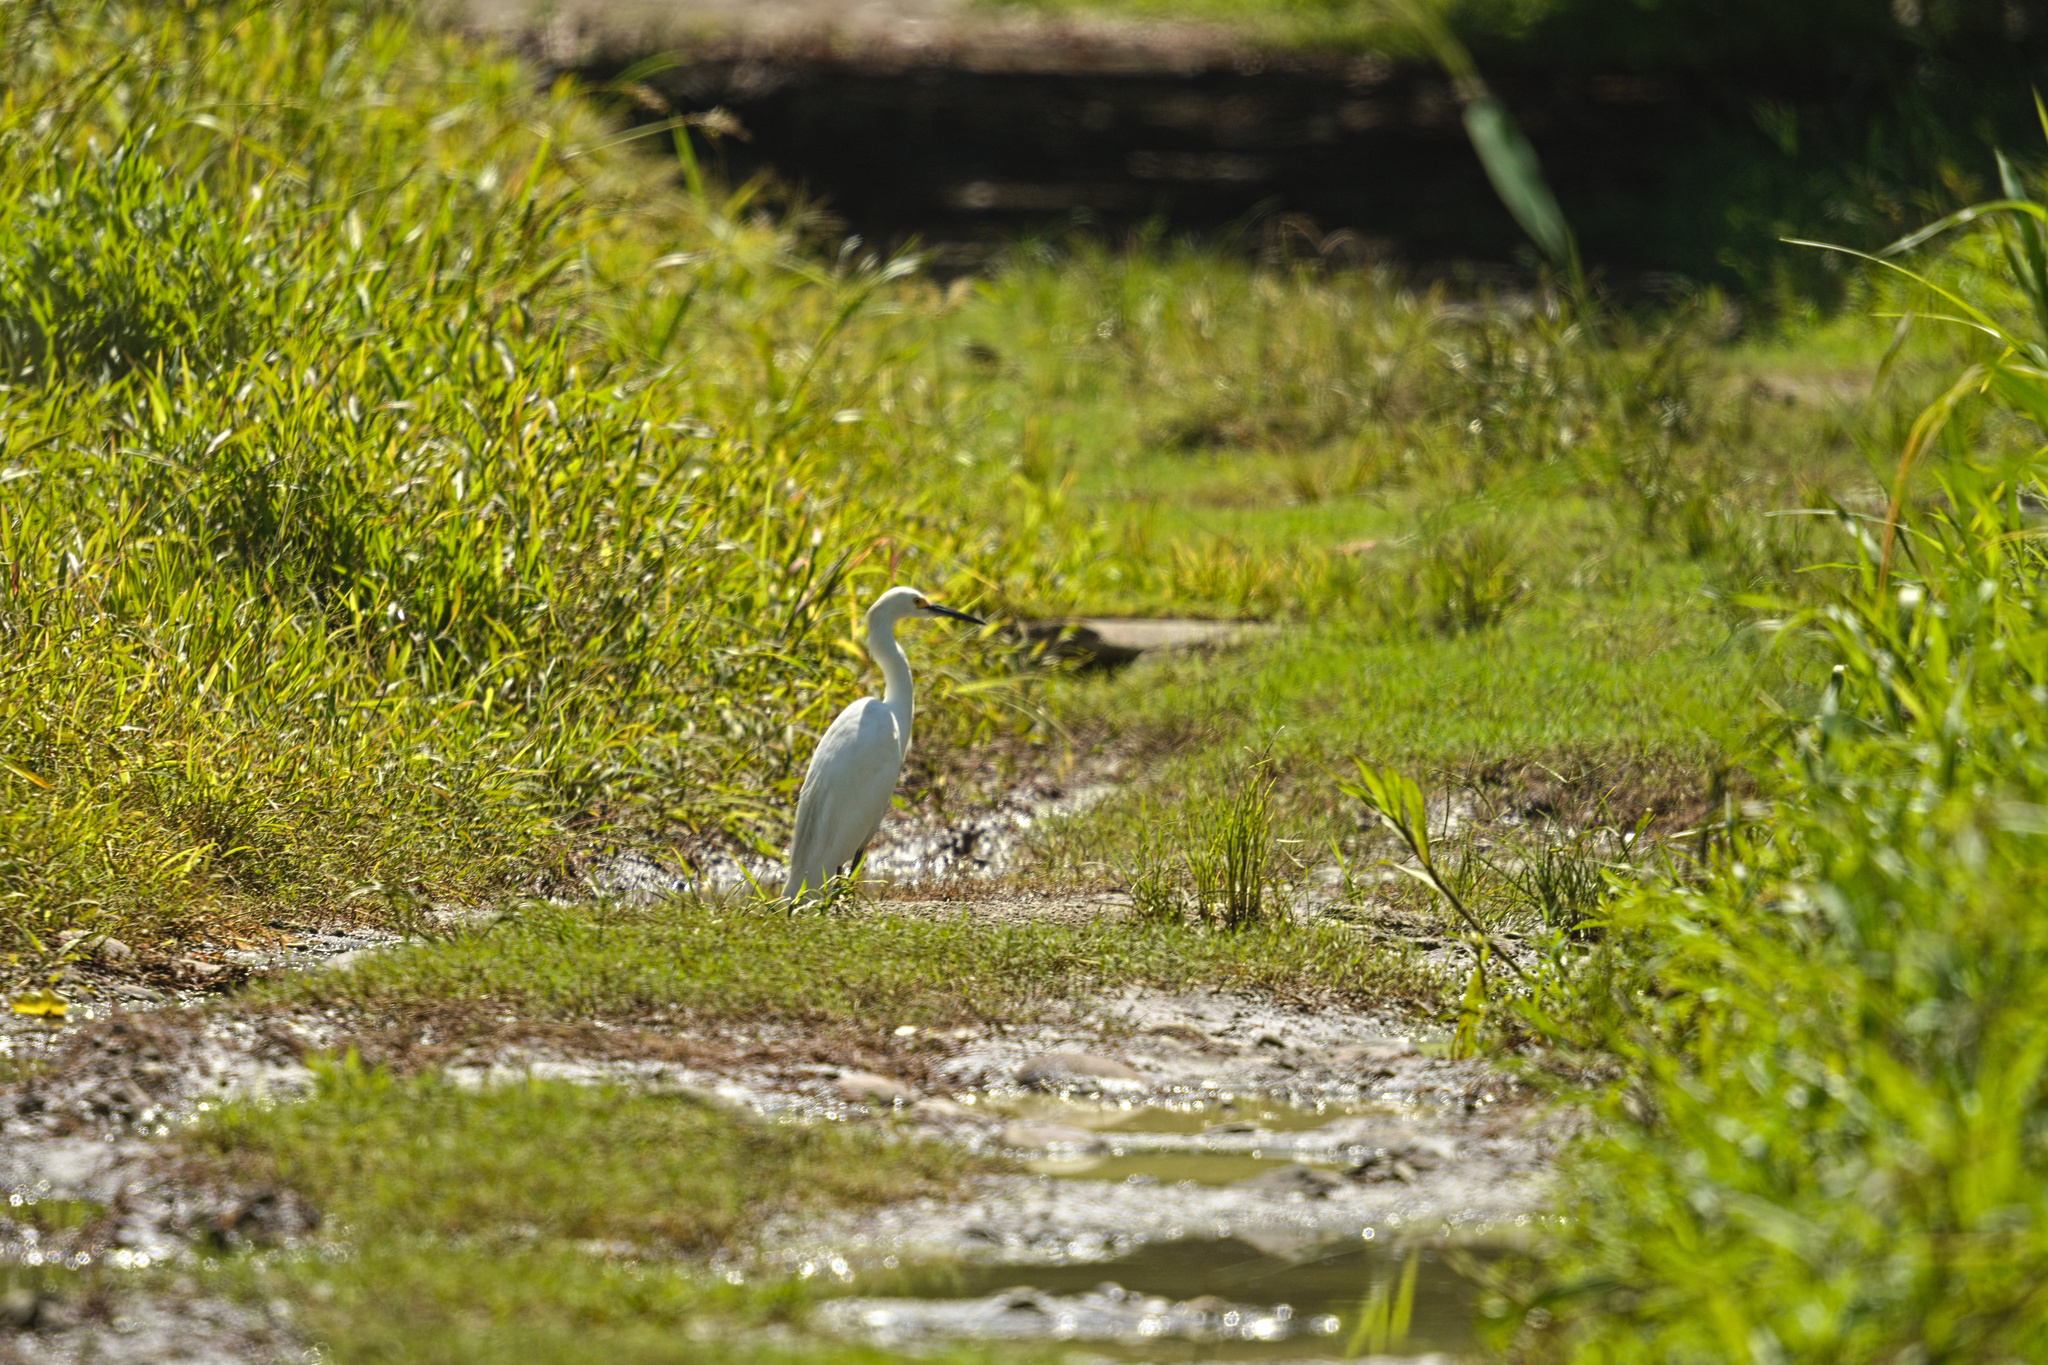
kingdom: Animalia
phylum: Chordata
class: Aves
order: Pelecaniformes
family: Ardeidae
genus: Egretta
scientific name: Egretta thula
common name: Snowy egret
